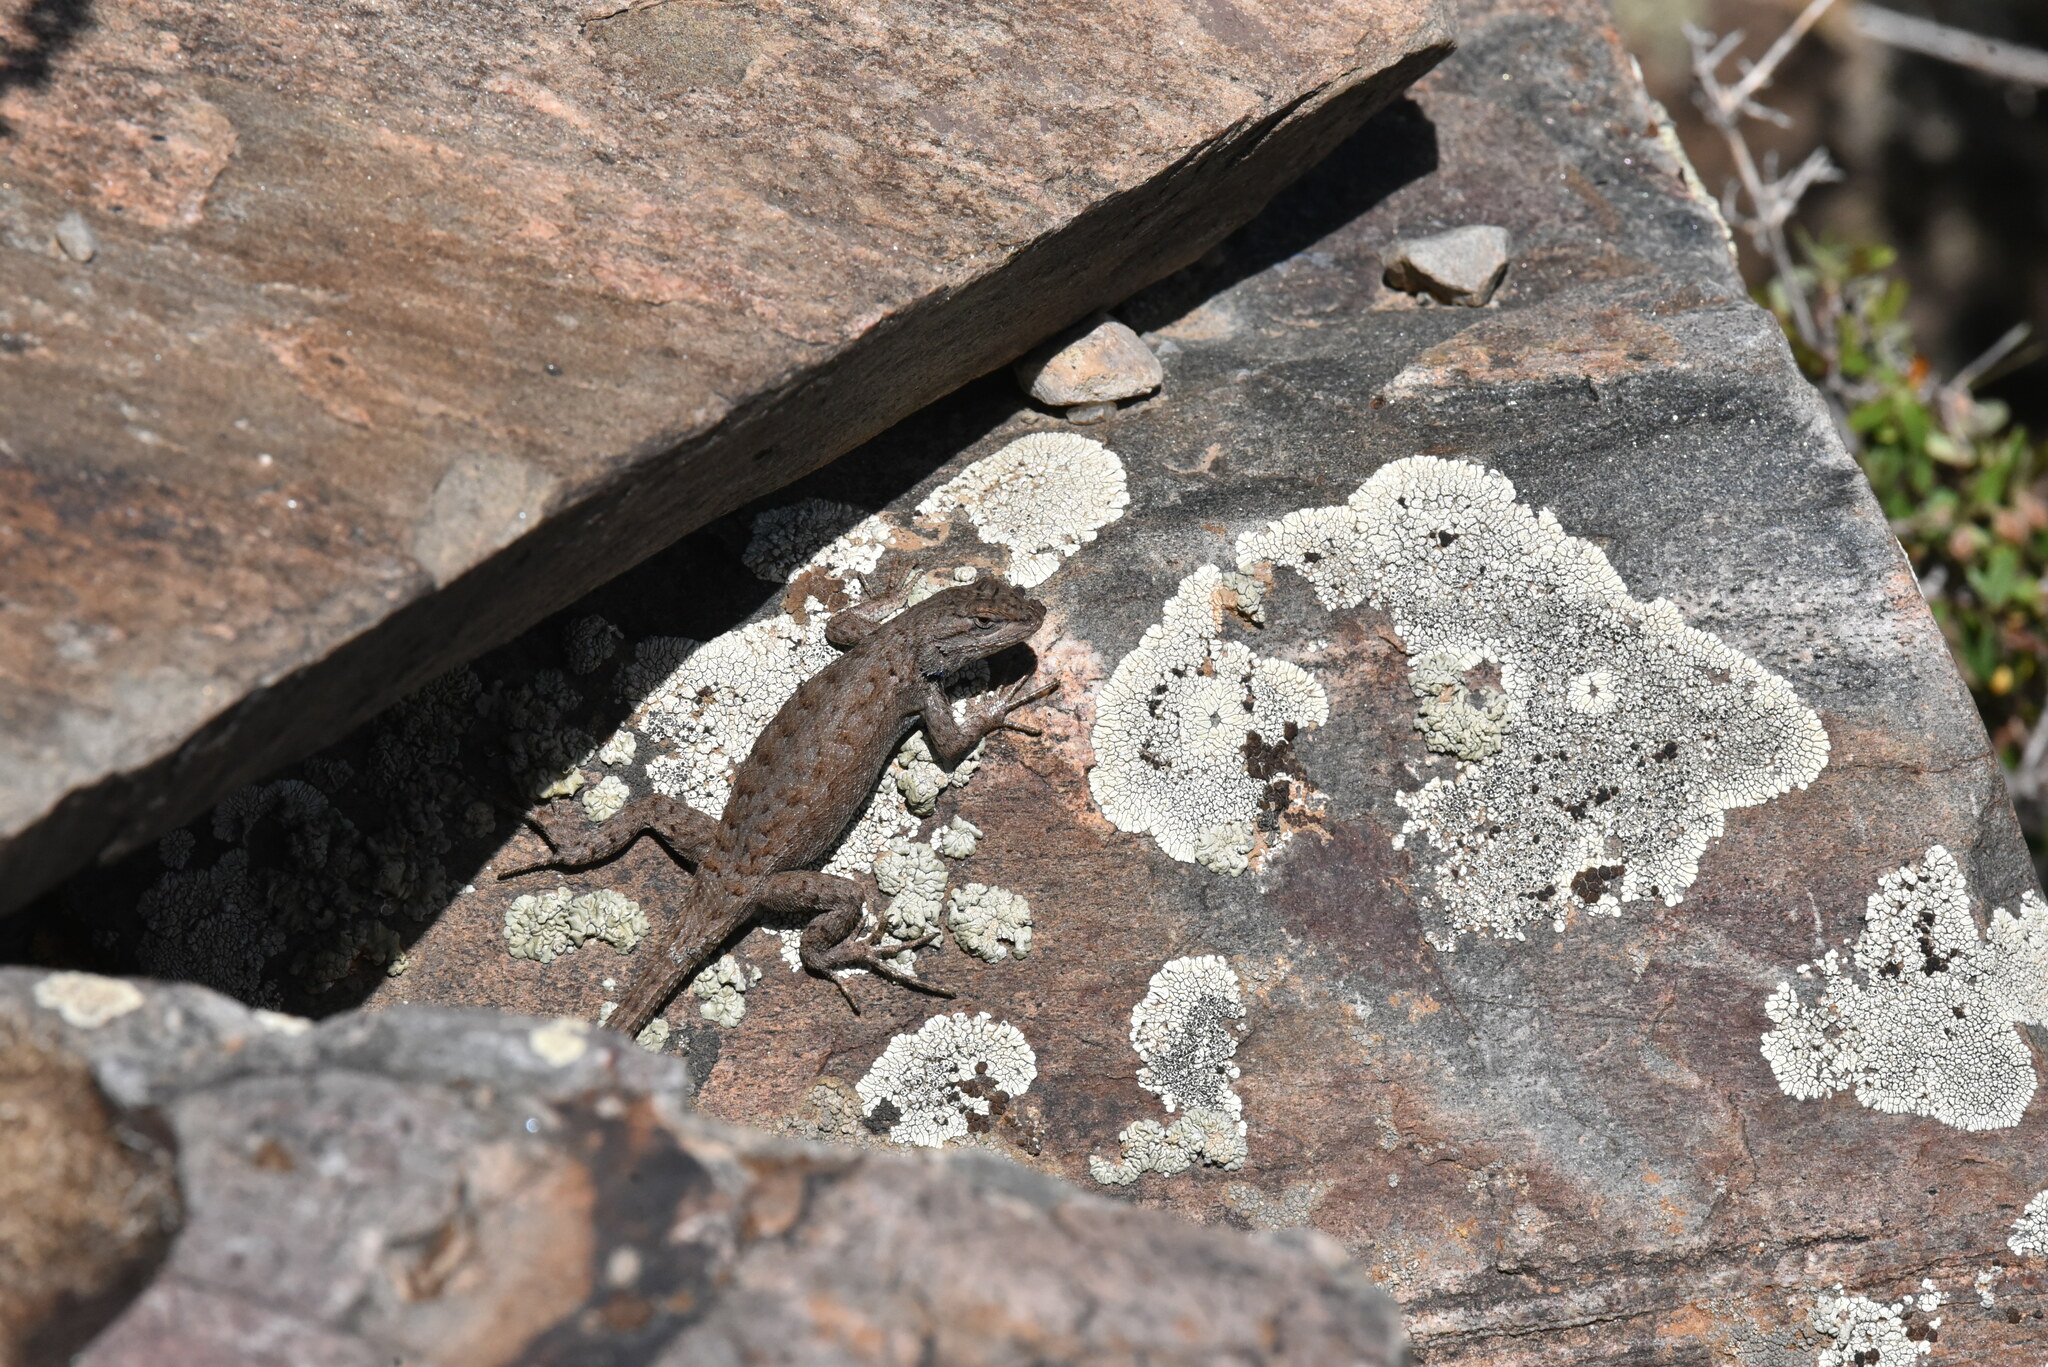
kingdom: Animalia
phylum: Chordata
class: Squamata
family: Phrynosomatidae
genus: Sceloporus
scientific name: Sceloporus tristichus
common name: Plateau fence lizard
